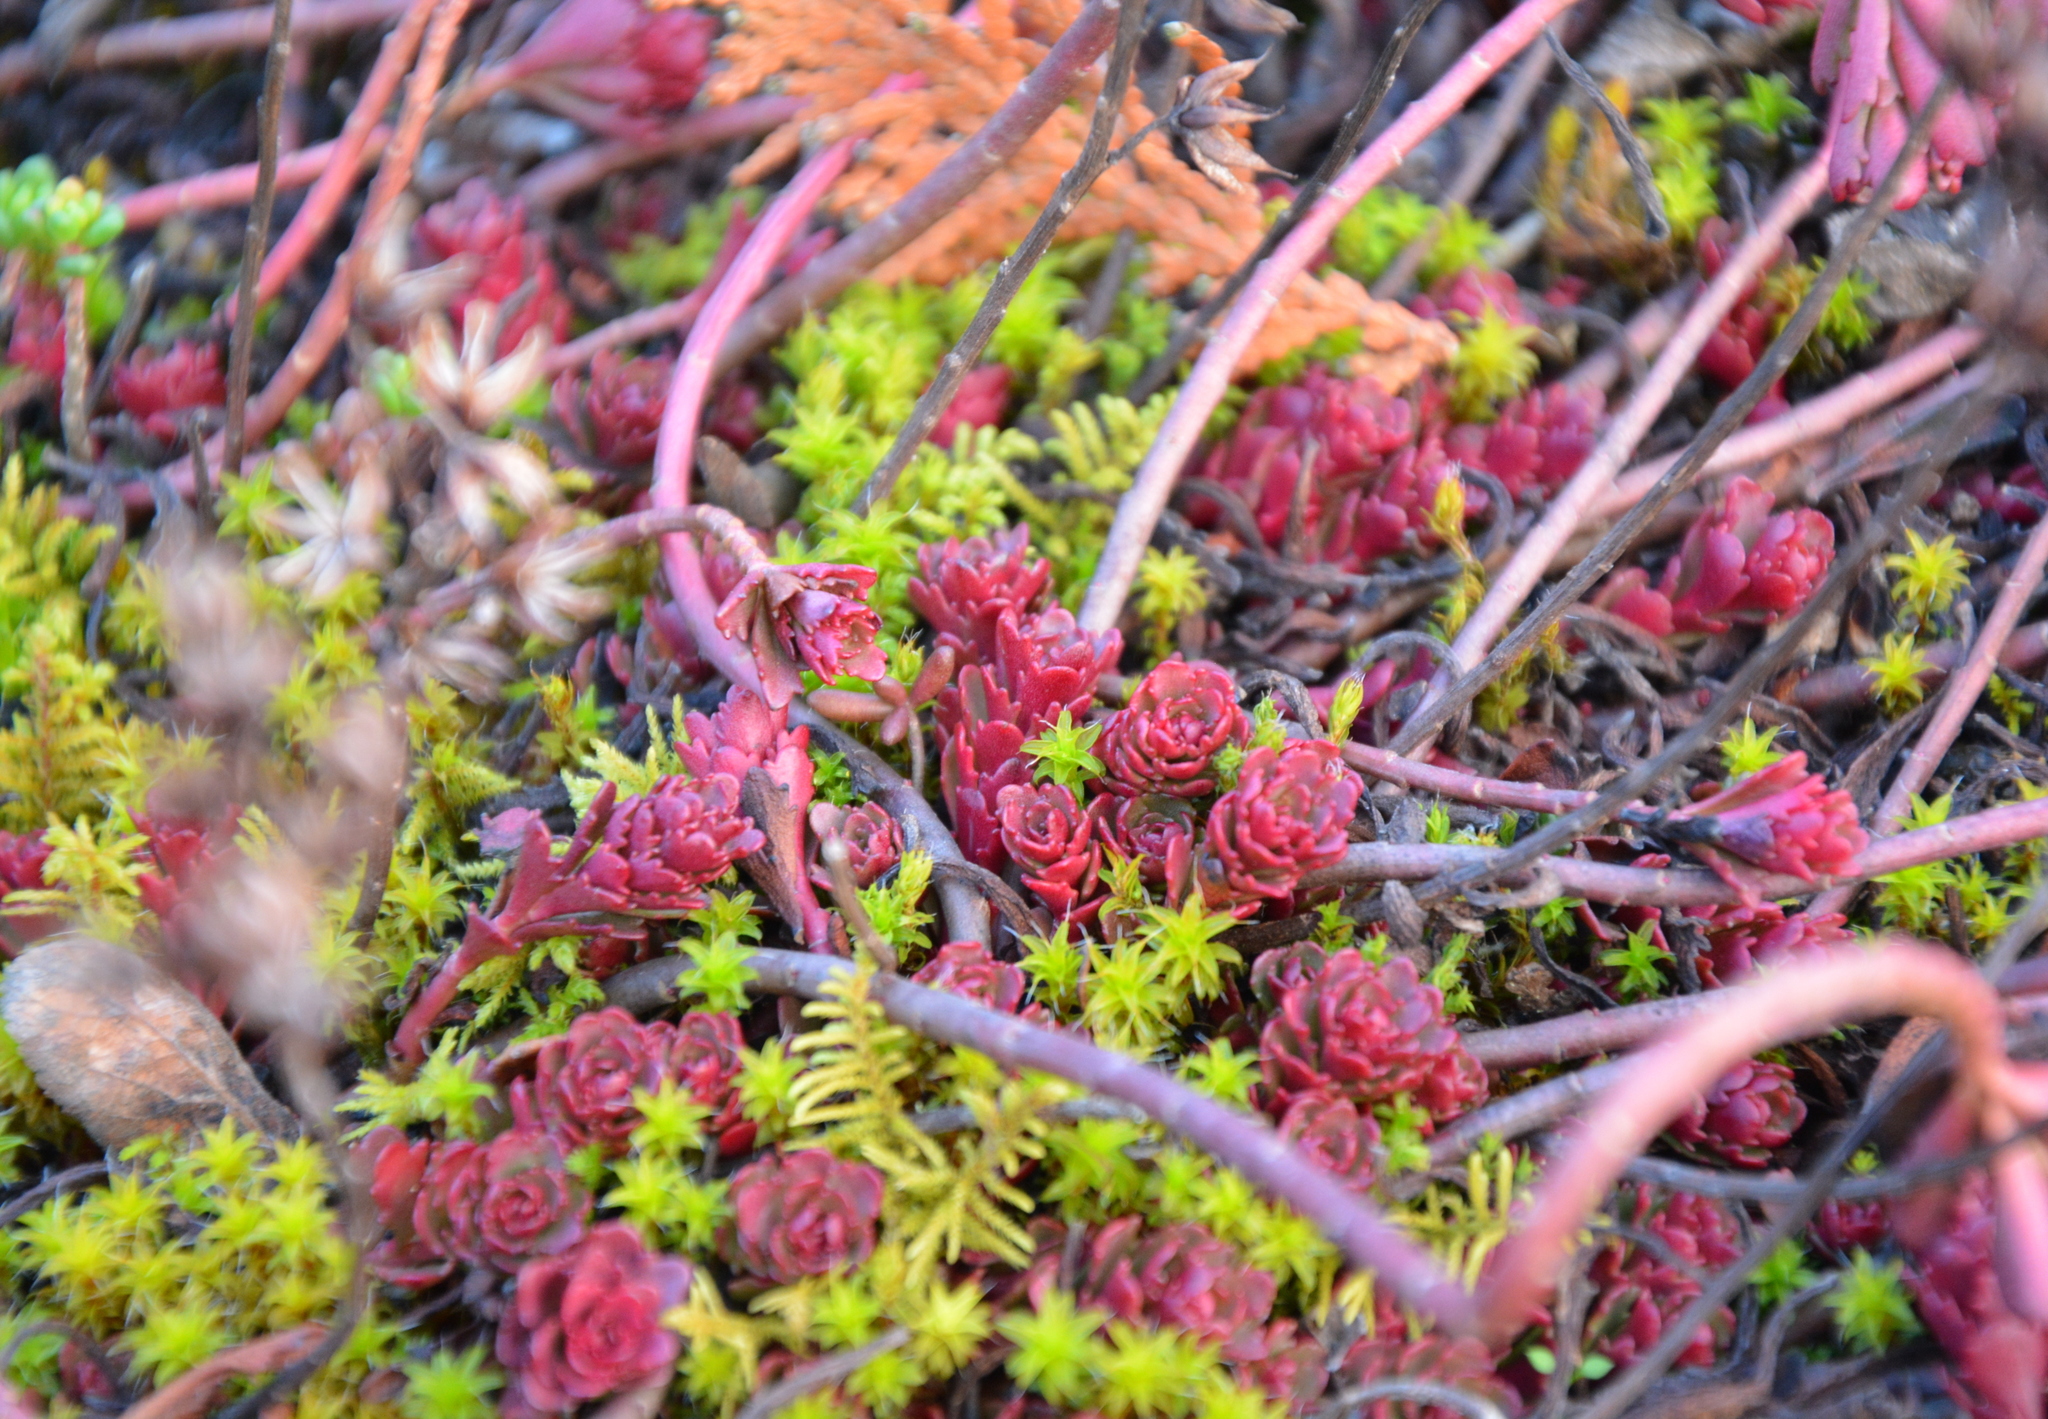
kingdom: Plantae
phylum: Tracheophyta
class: Magnoliopsida
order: Saxifragales
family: Crassulaceae
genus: Phedimus
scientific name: Phedimus spurius
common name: Caucasian stonecrop
